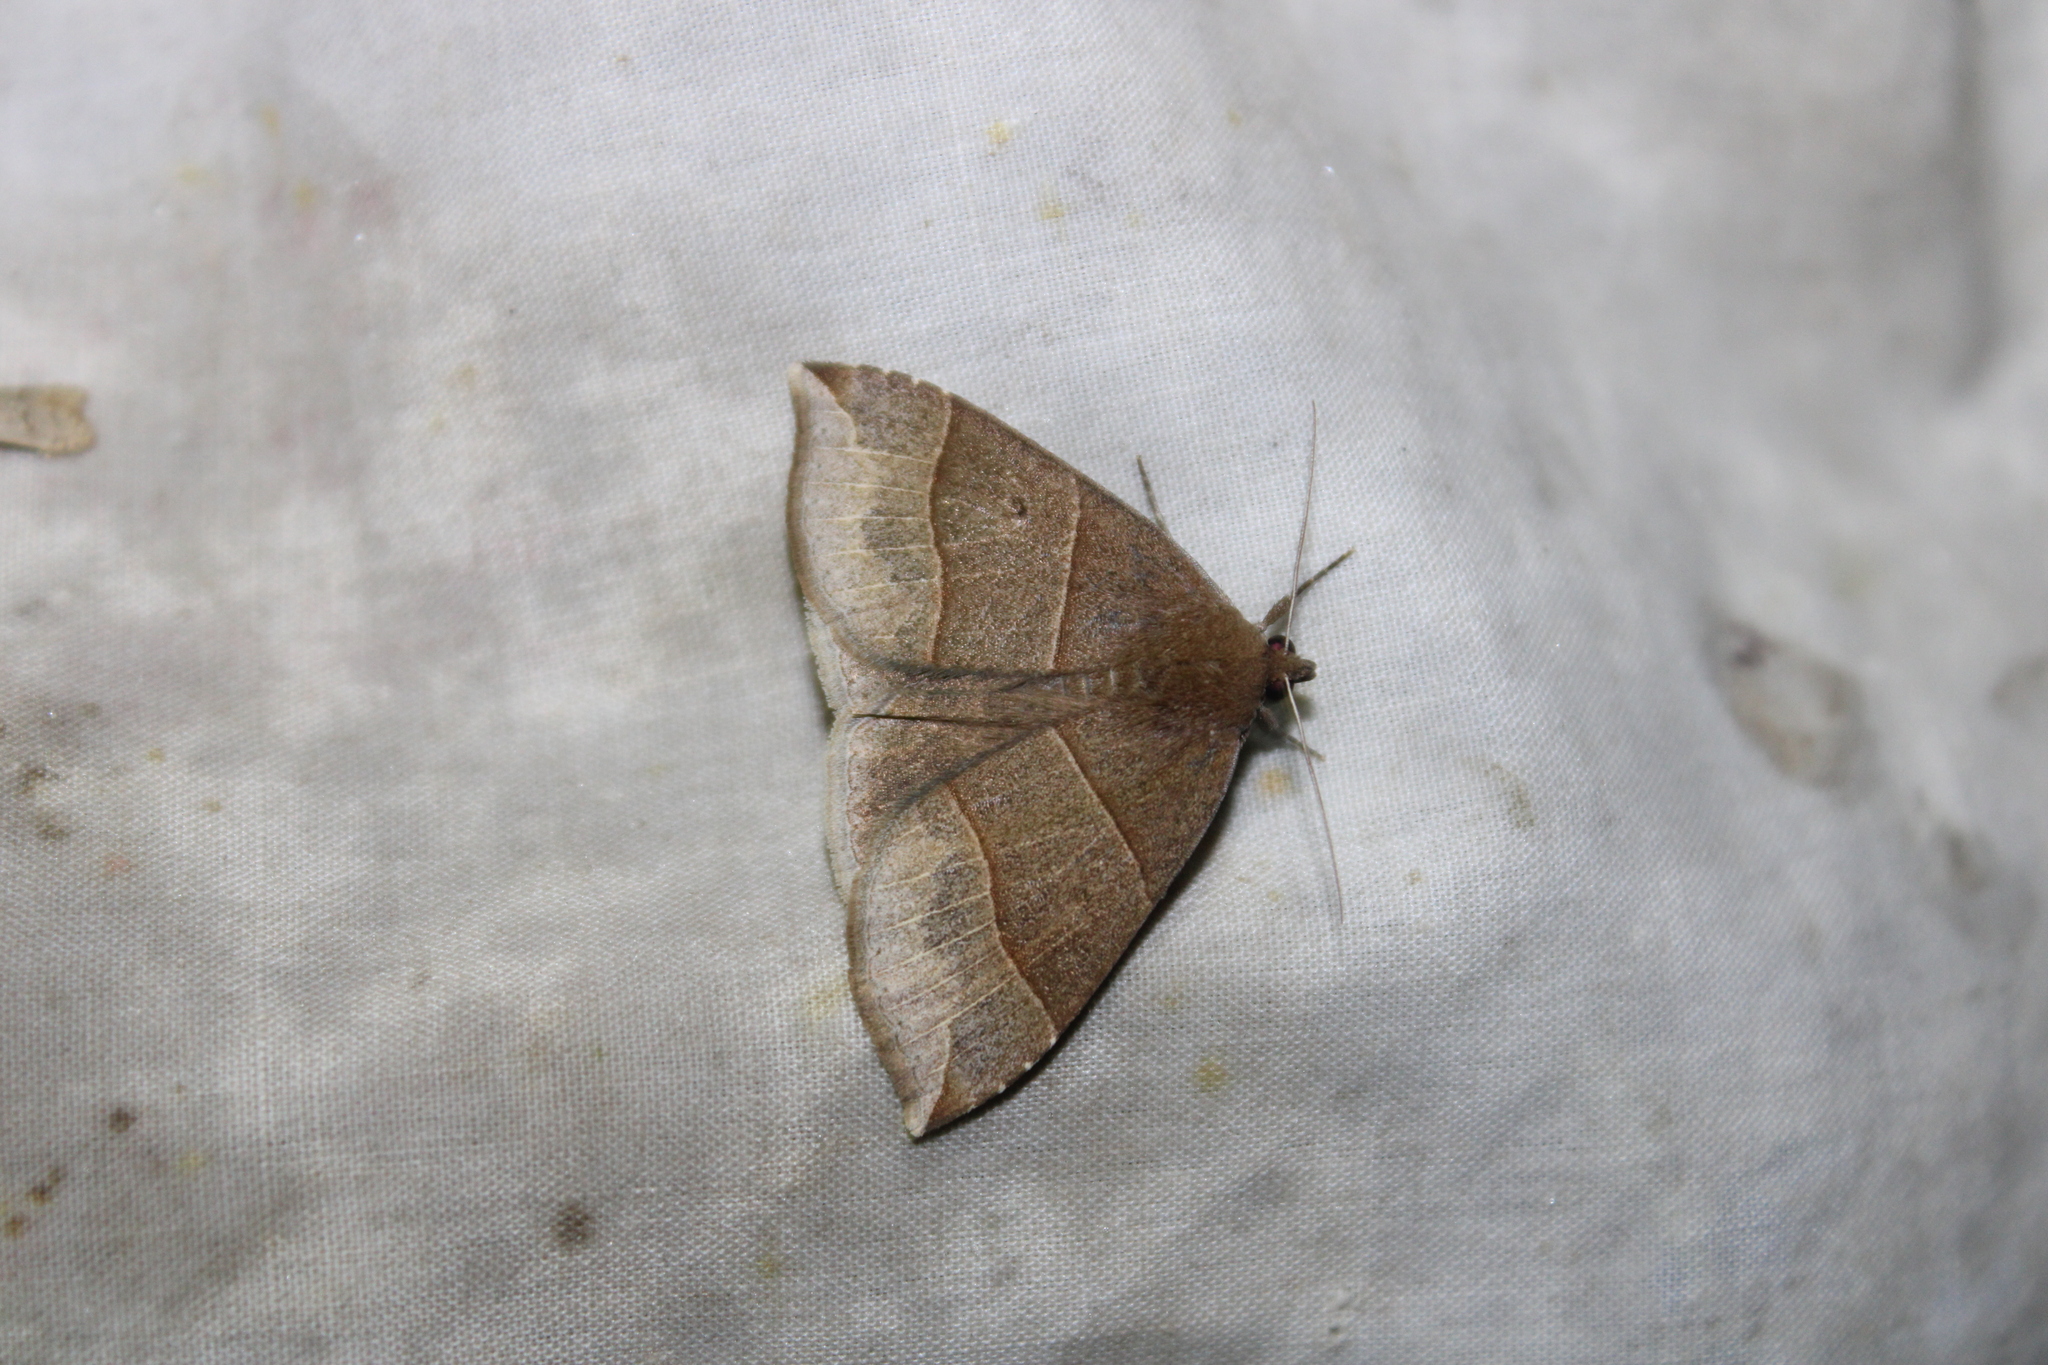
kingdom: Animalia
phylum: Arthropoda
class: Insecta
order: Lepidoptera
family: Erebidae
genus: Parallelia
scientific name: Parallelia bistriaris
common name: Maple looper moth
